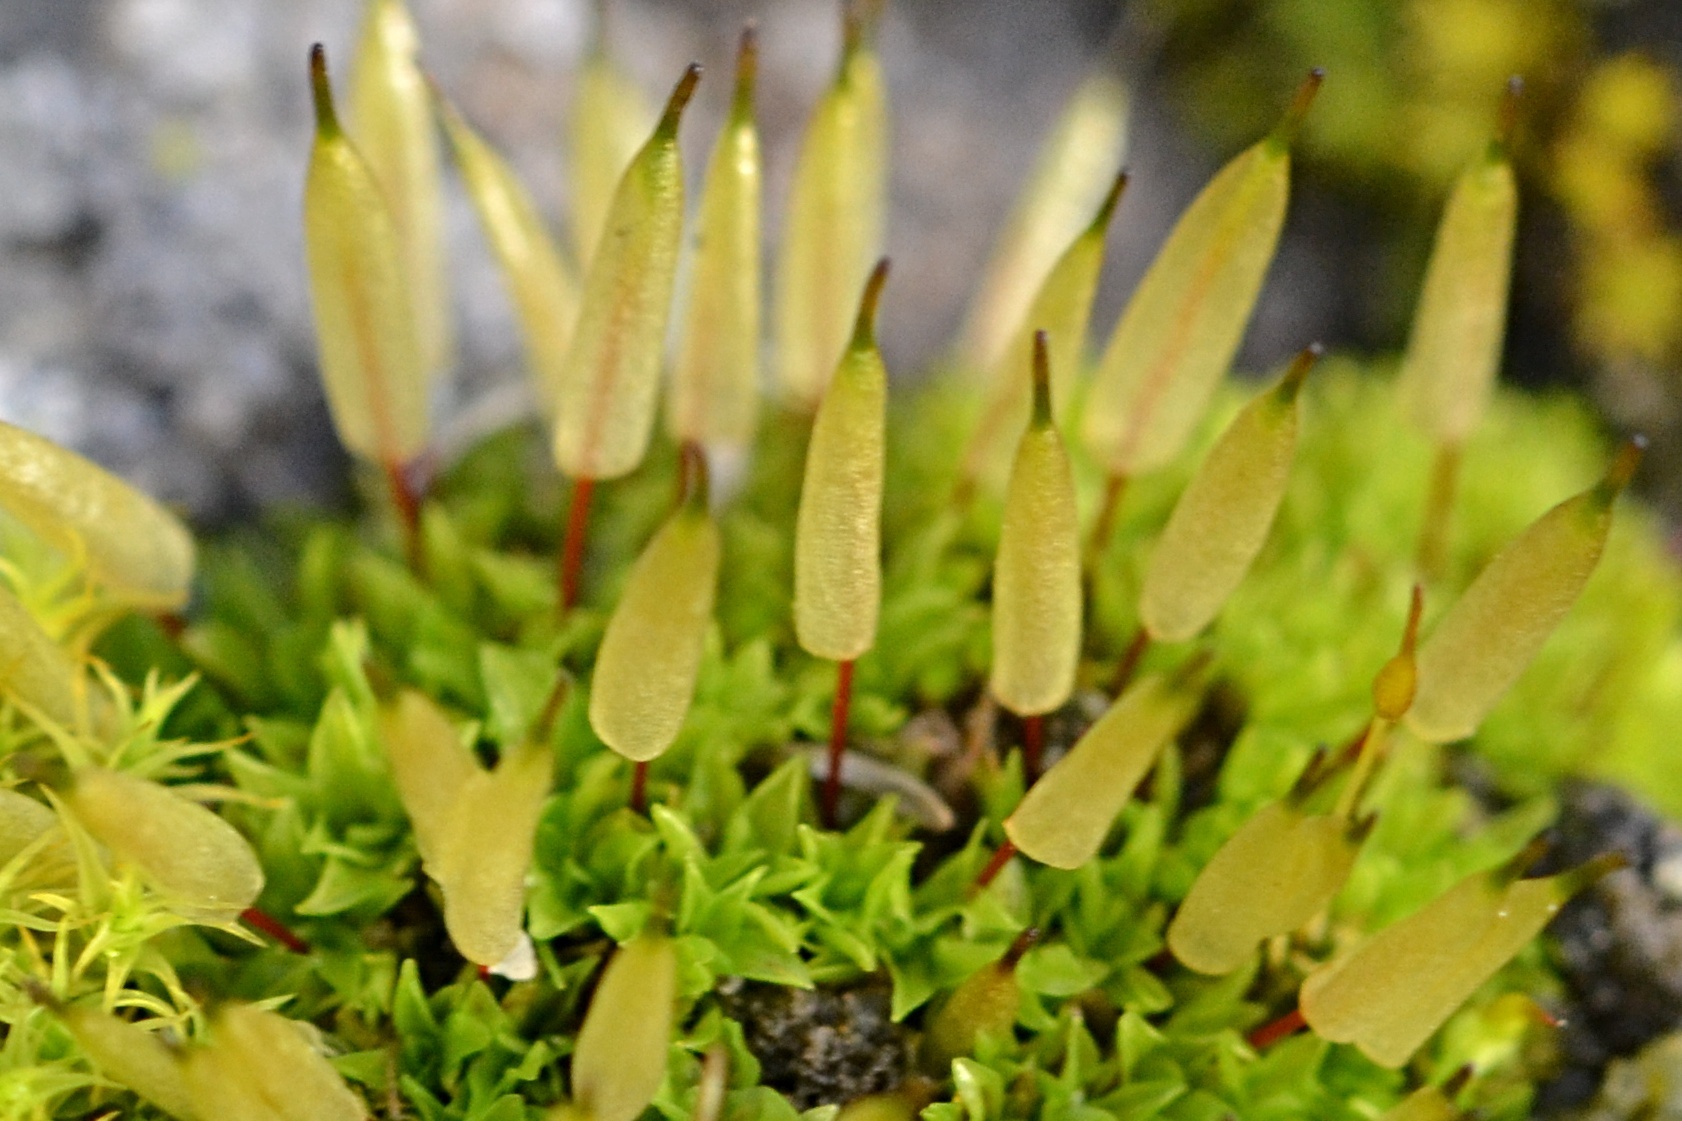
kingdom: Plantae
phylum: Bryophyta
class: Bryopsida
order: Encalyptales
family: Encalyptaceae
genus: Encalypta
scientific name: Encalypta vulgaris
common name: Common extinguisher-moss
